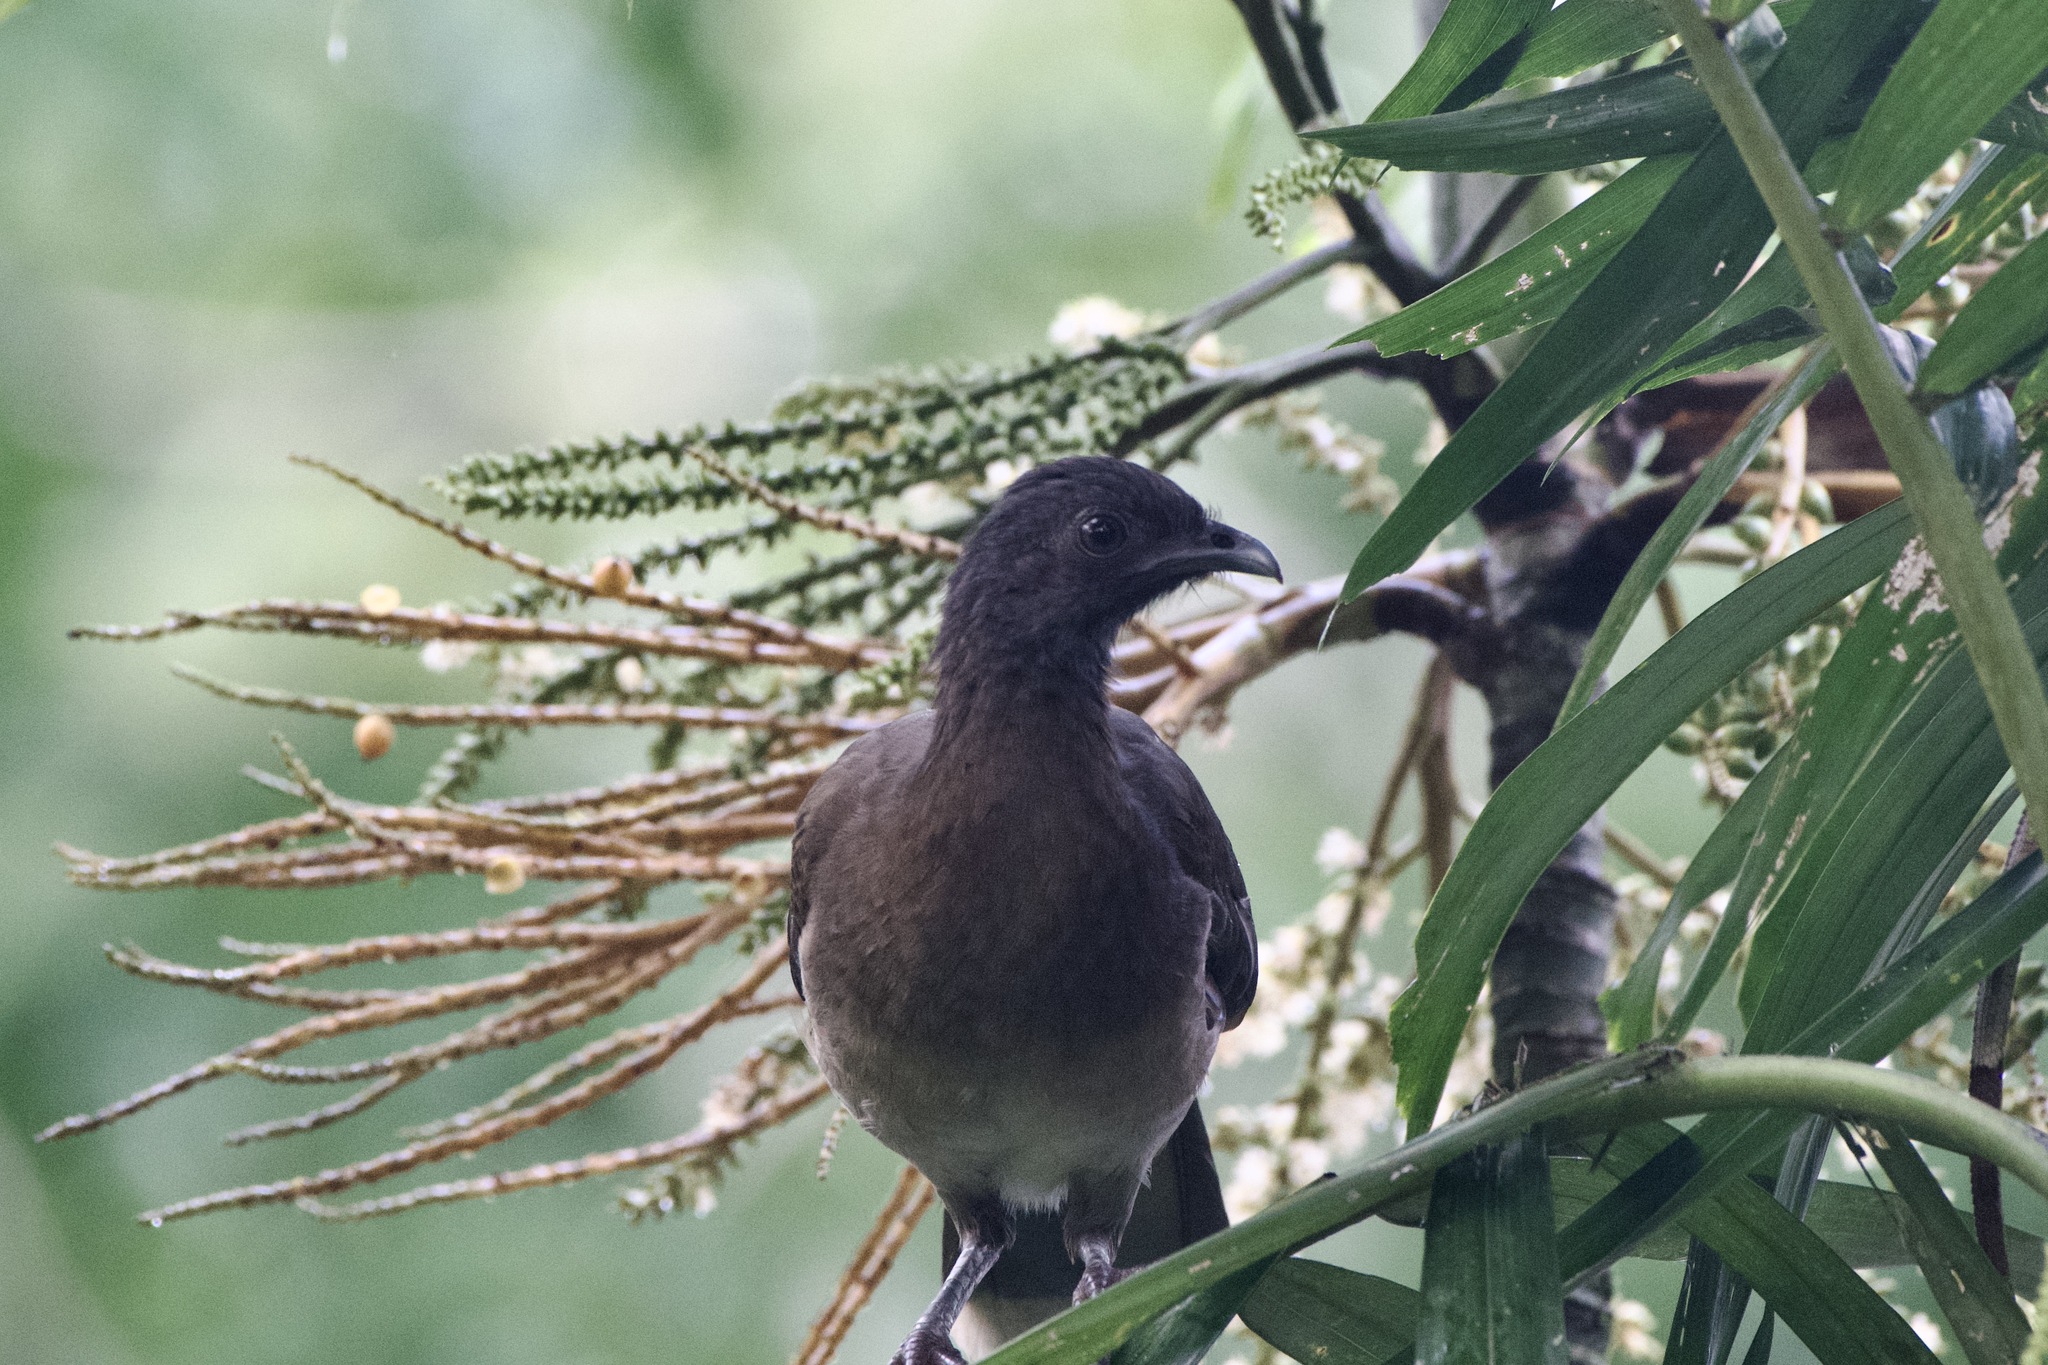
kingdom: Animalia
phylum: Chordata
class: Aves
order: Galliformes
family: Cracidae
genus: Ortalis
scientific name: Ortalis cinereiceps
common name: Grey-headed chachalaca
